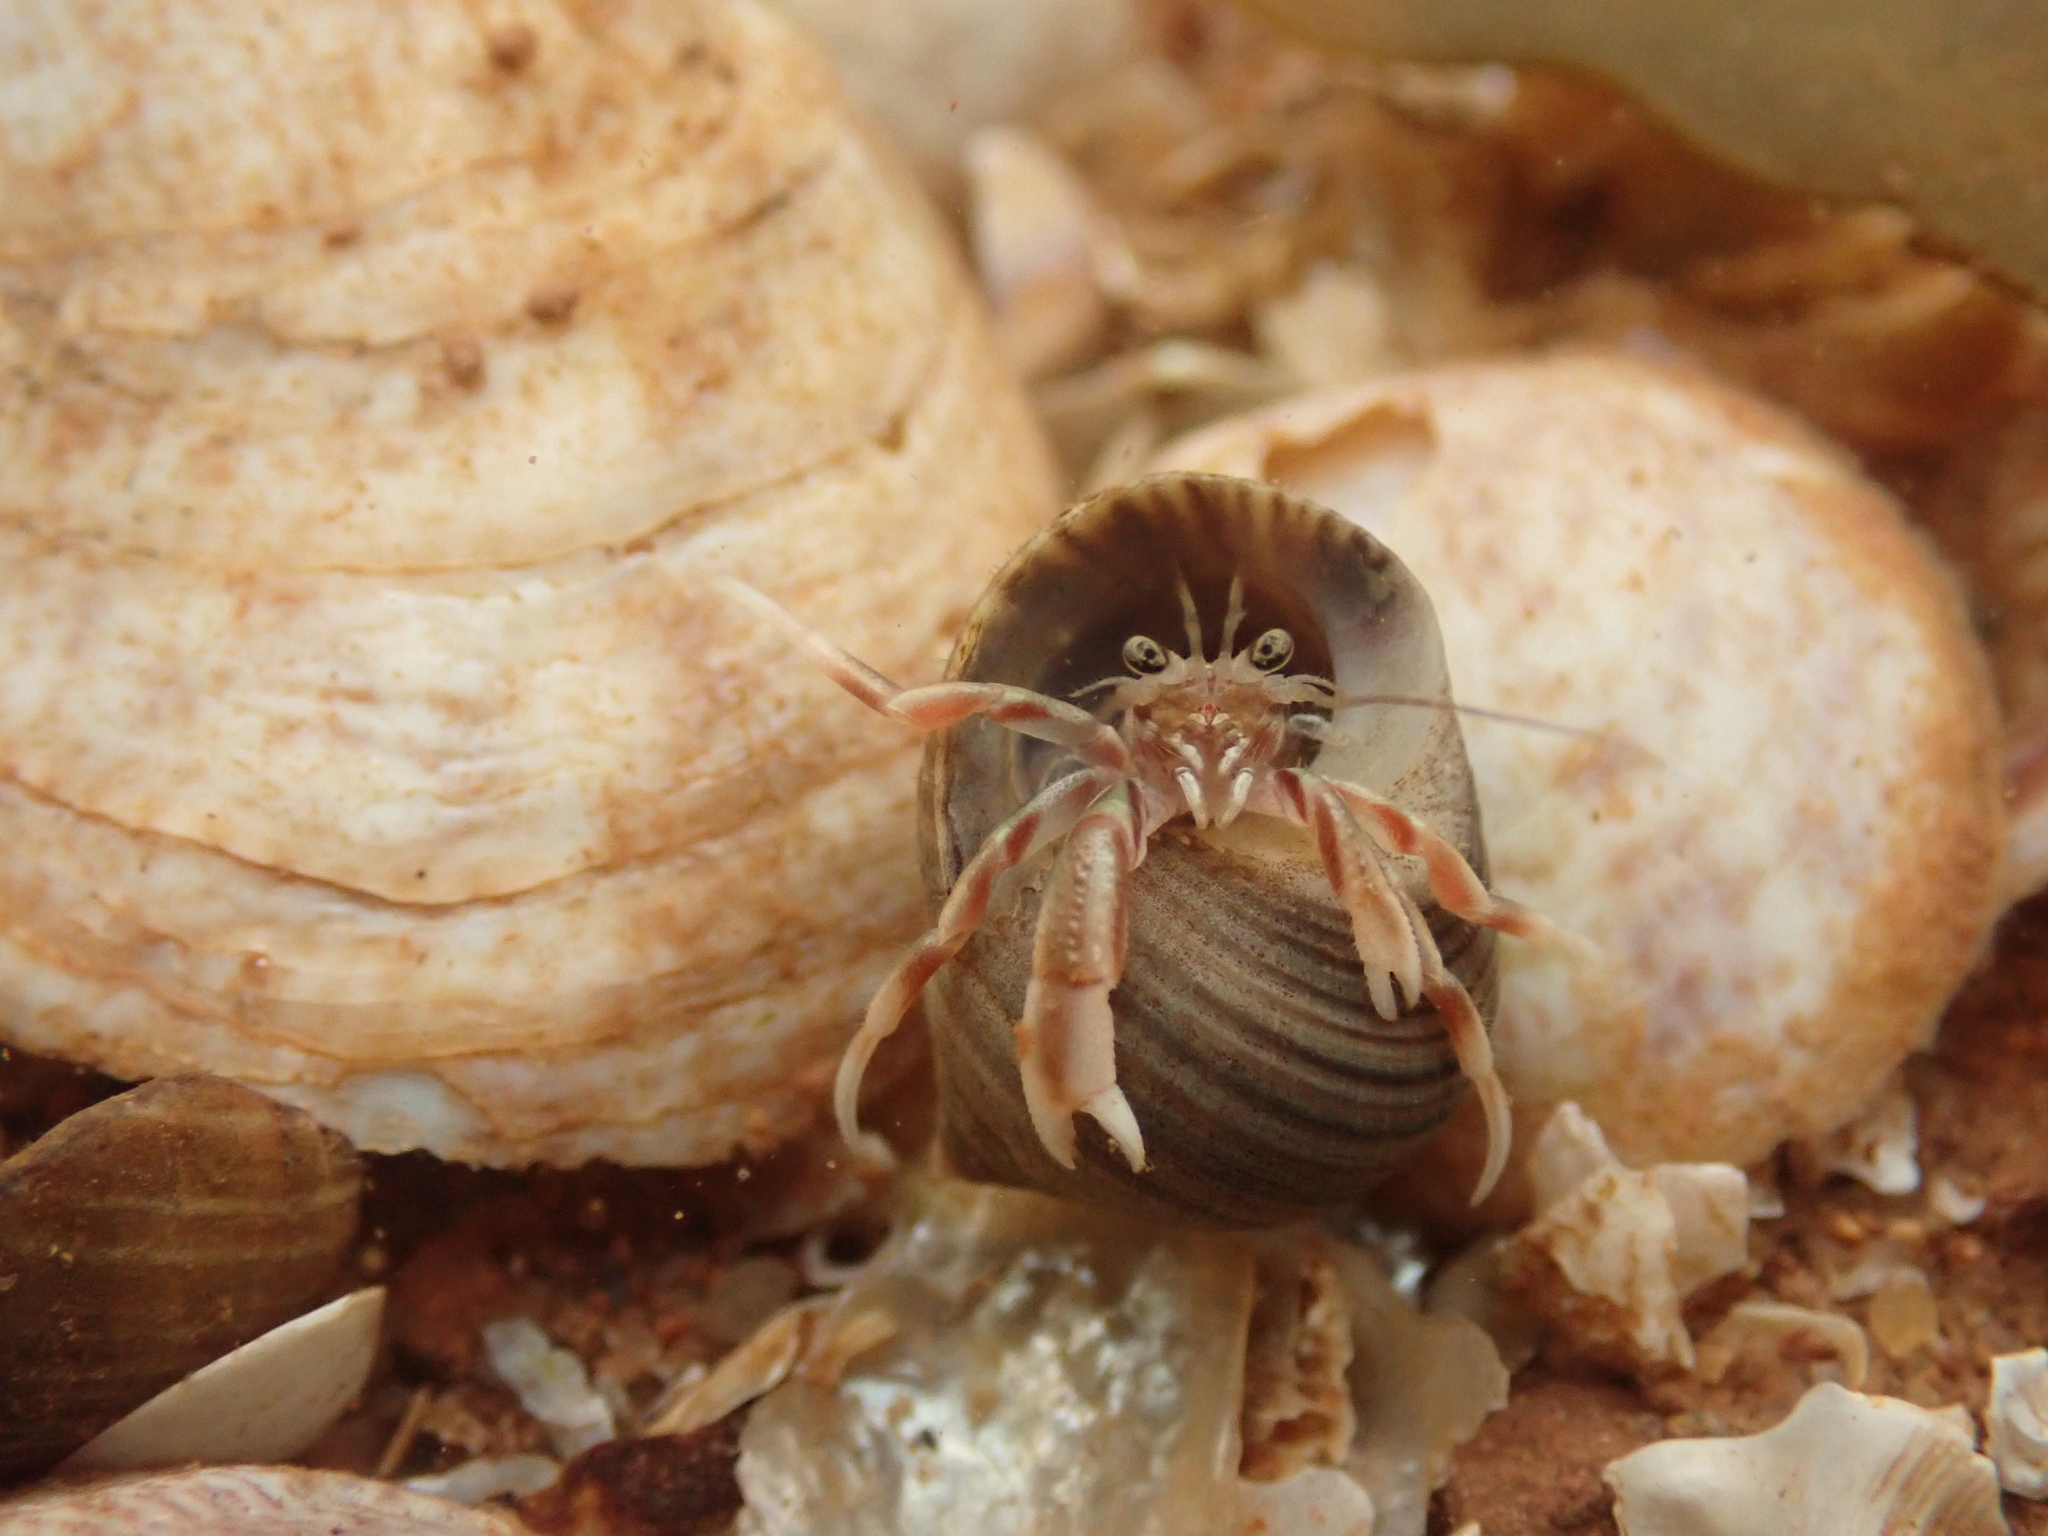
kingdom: Animalia
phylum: Arthropoda
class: Malacostraca
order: Decapoda
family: Paguridae
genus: Pagurus
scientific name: Pagurus longicarpus
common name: Long-armed hermit crab
